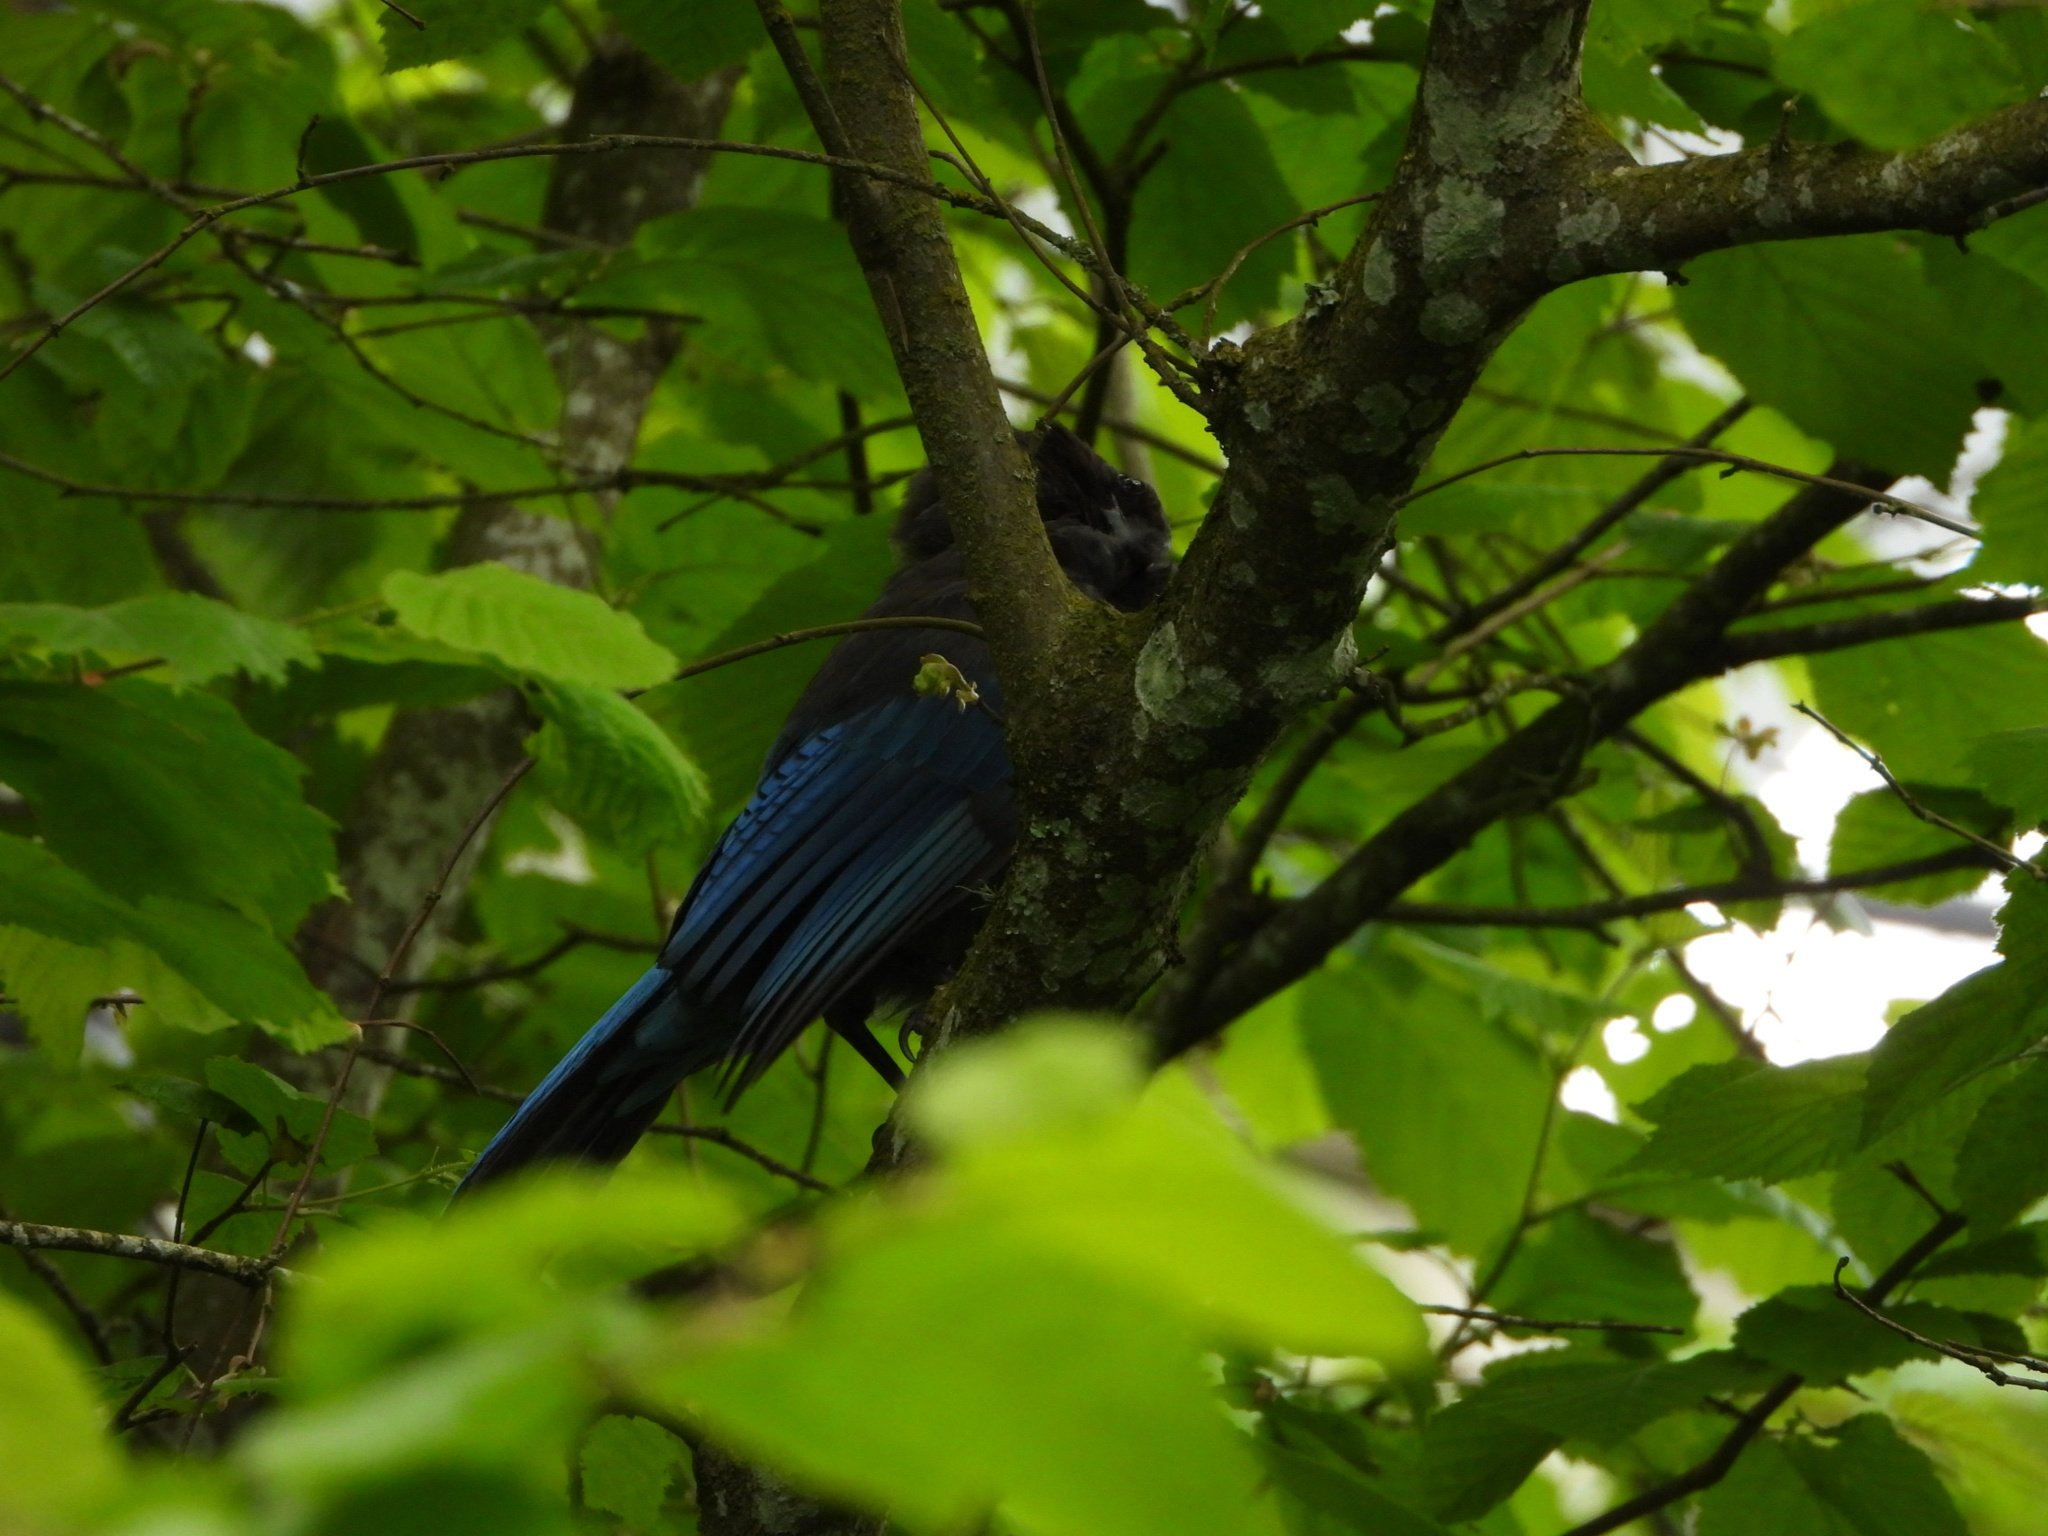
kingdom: Animalia
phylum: Chordata
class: Aves
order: Passeriformes
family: Corvidae
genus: Cyanocitta
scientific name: Cyanocitta stelleri
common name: Steller's jay
